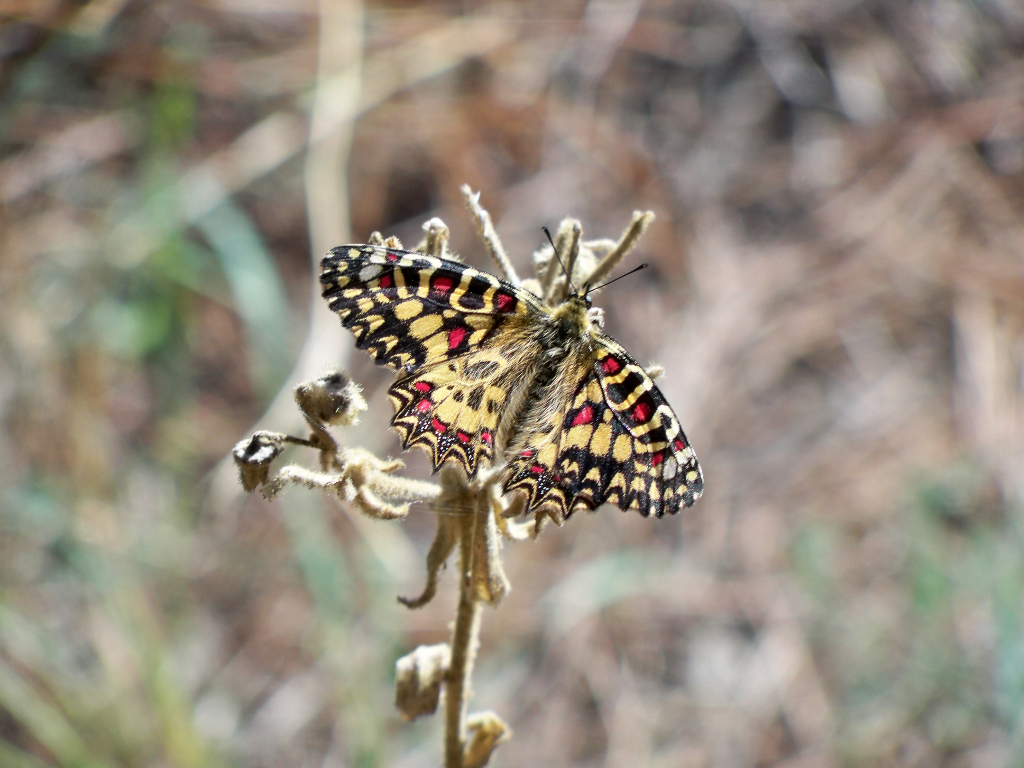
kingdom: Animalia
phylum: Arthropoda
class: Insecta
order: Lepidoptera
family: Papilionidae
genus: Zerynthia
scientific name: Zerynthia rumina
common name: Spanish festoon
